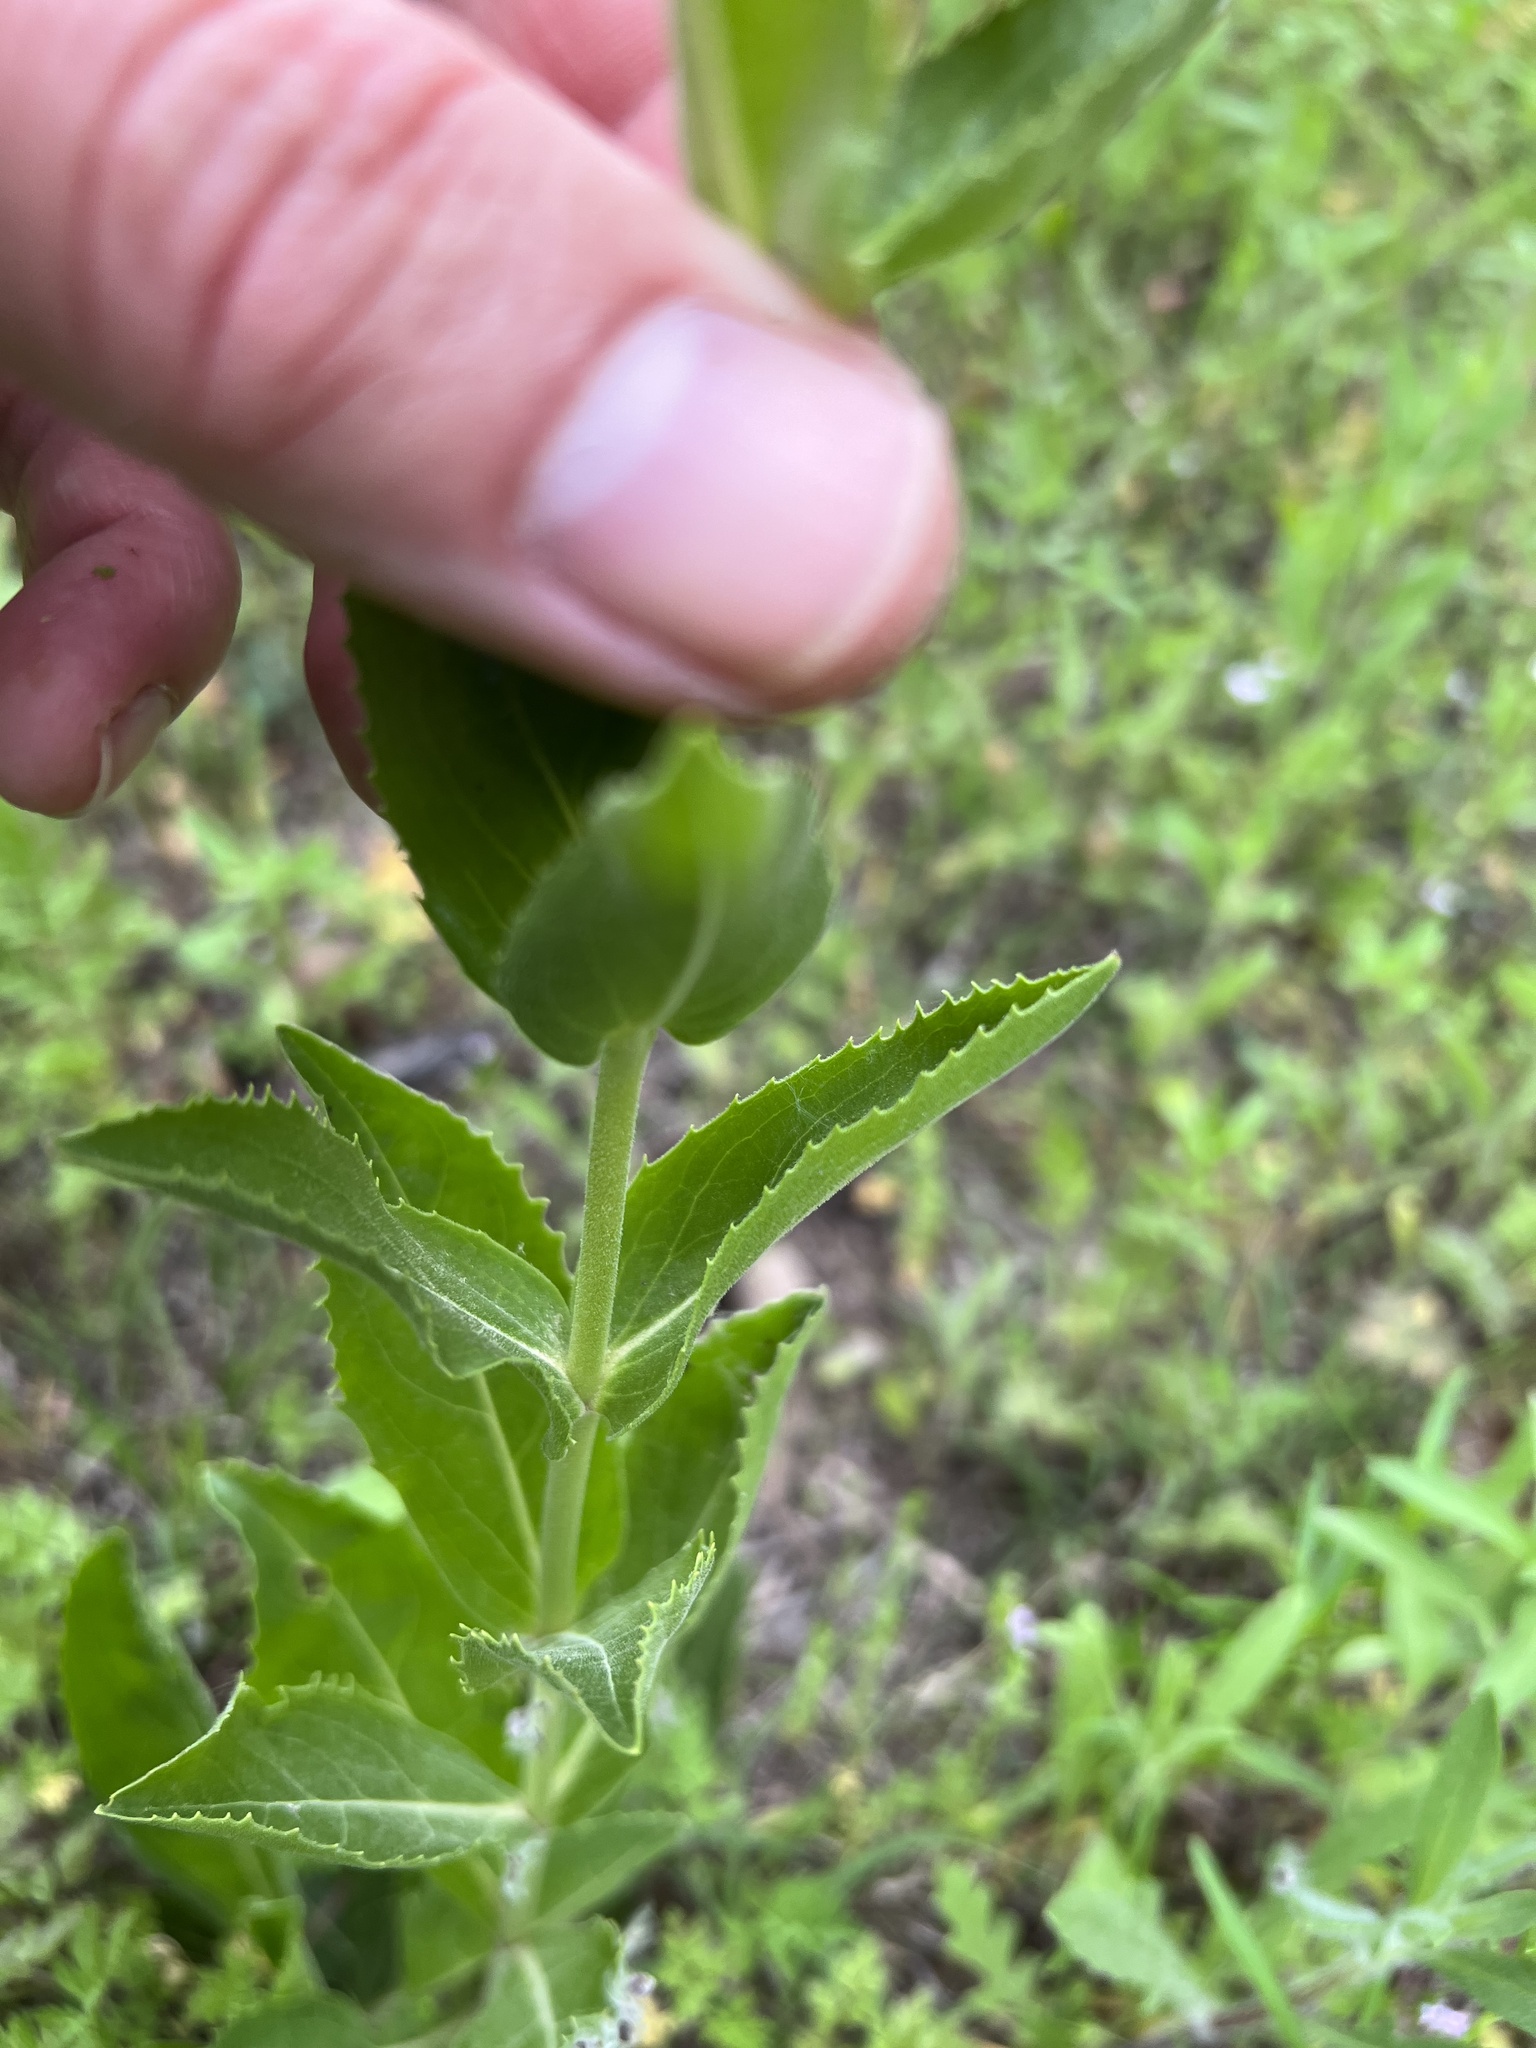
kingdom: Plantae
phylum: Tracheophyta
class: Magnoliopsida
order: Lamiales
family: Plantaginaceae
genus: Penstemon
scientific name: Penstemon cobaea
